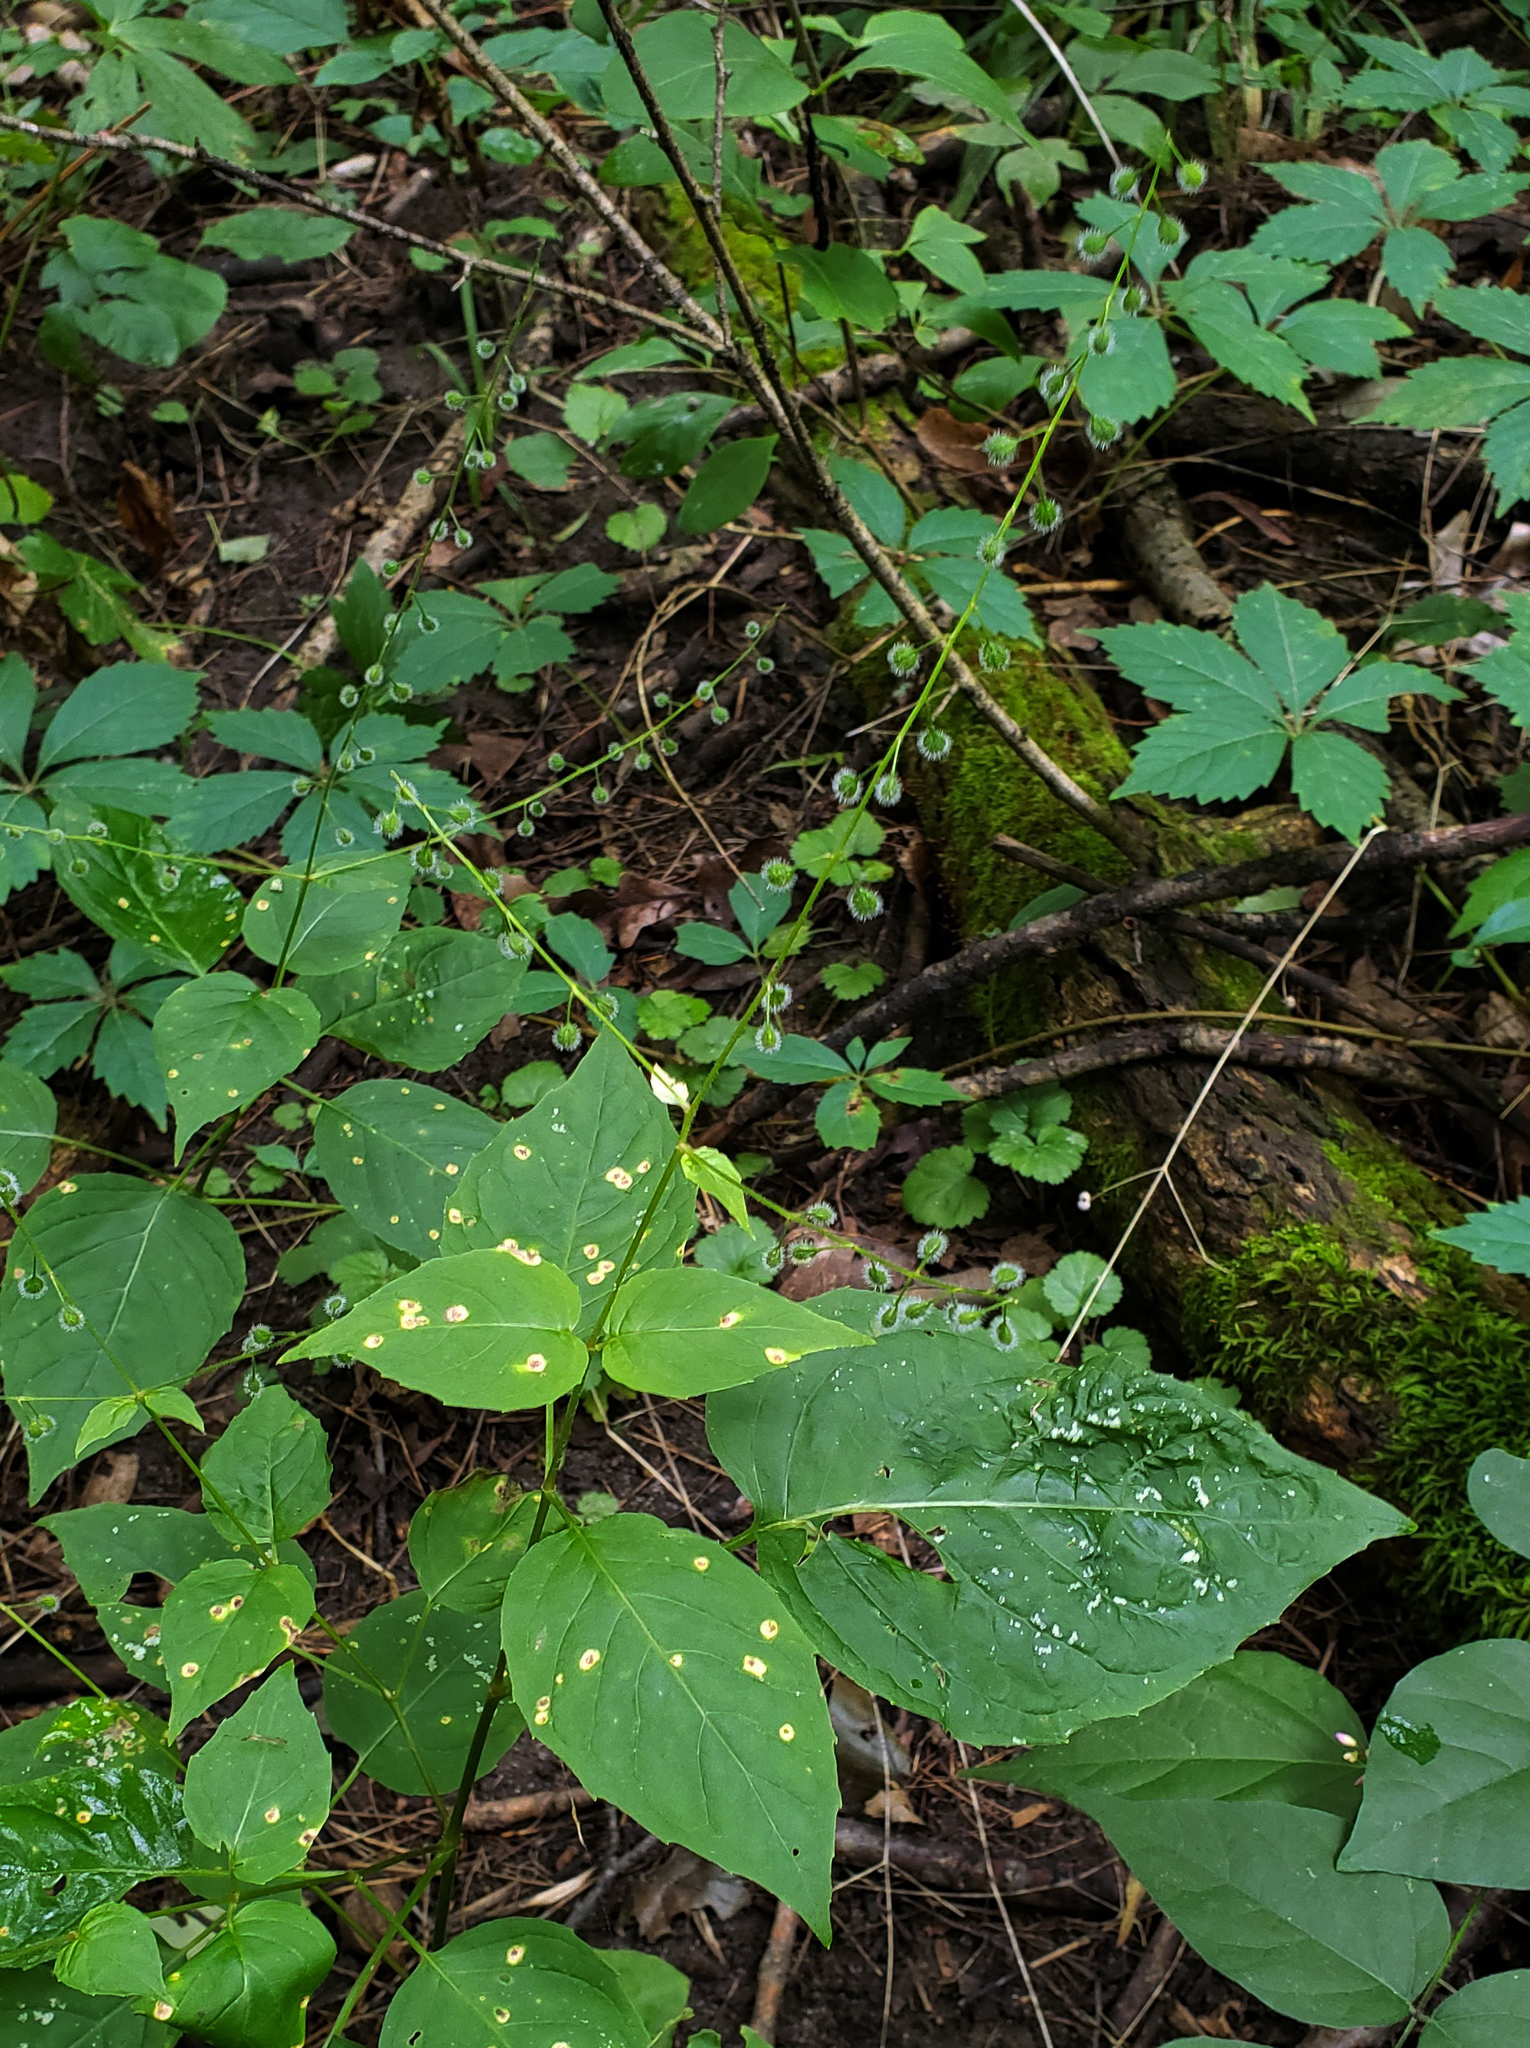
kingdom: Plantae
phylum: Tracheophyta
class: Magnoliopsida
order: Myrtales
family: Onagraceae
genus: Circaea
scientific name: Circaea canadensis
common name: Broad-leaved enchanter's nightshade
